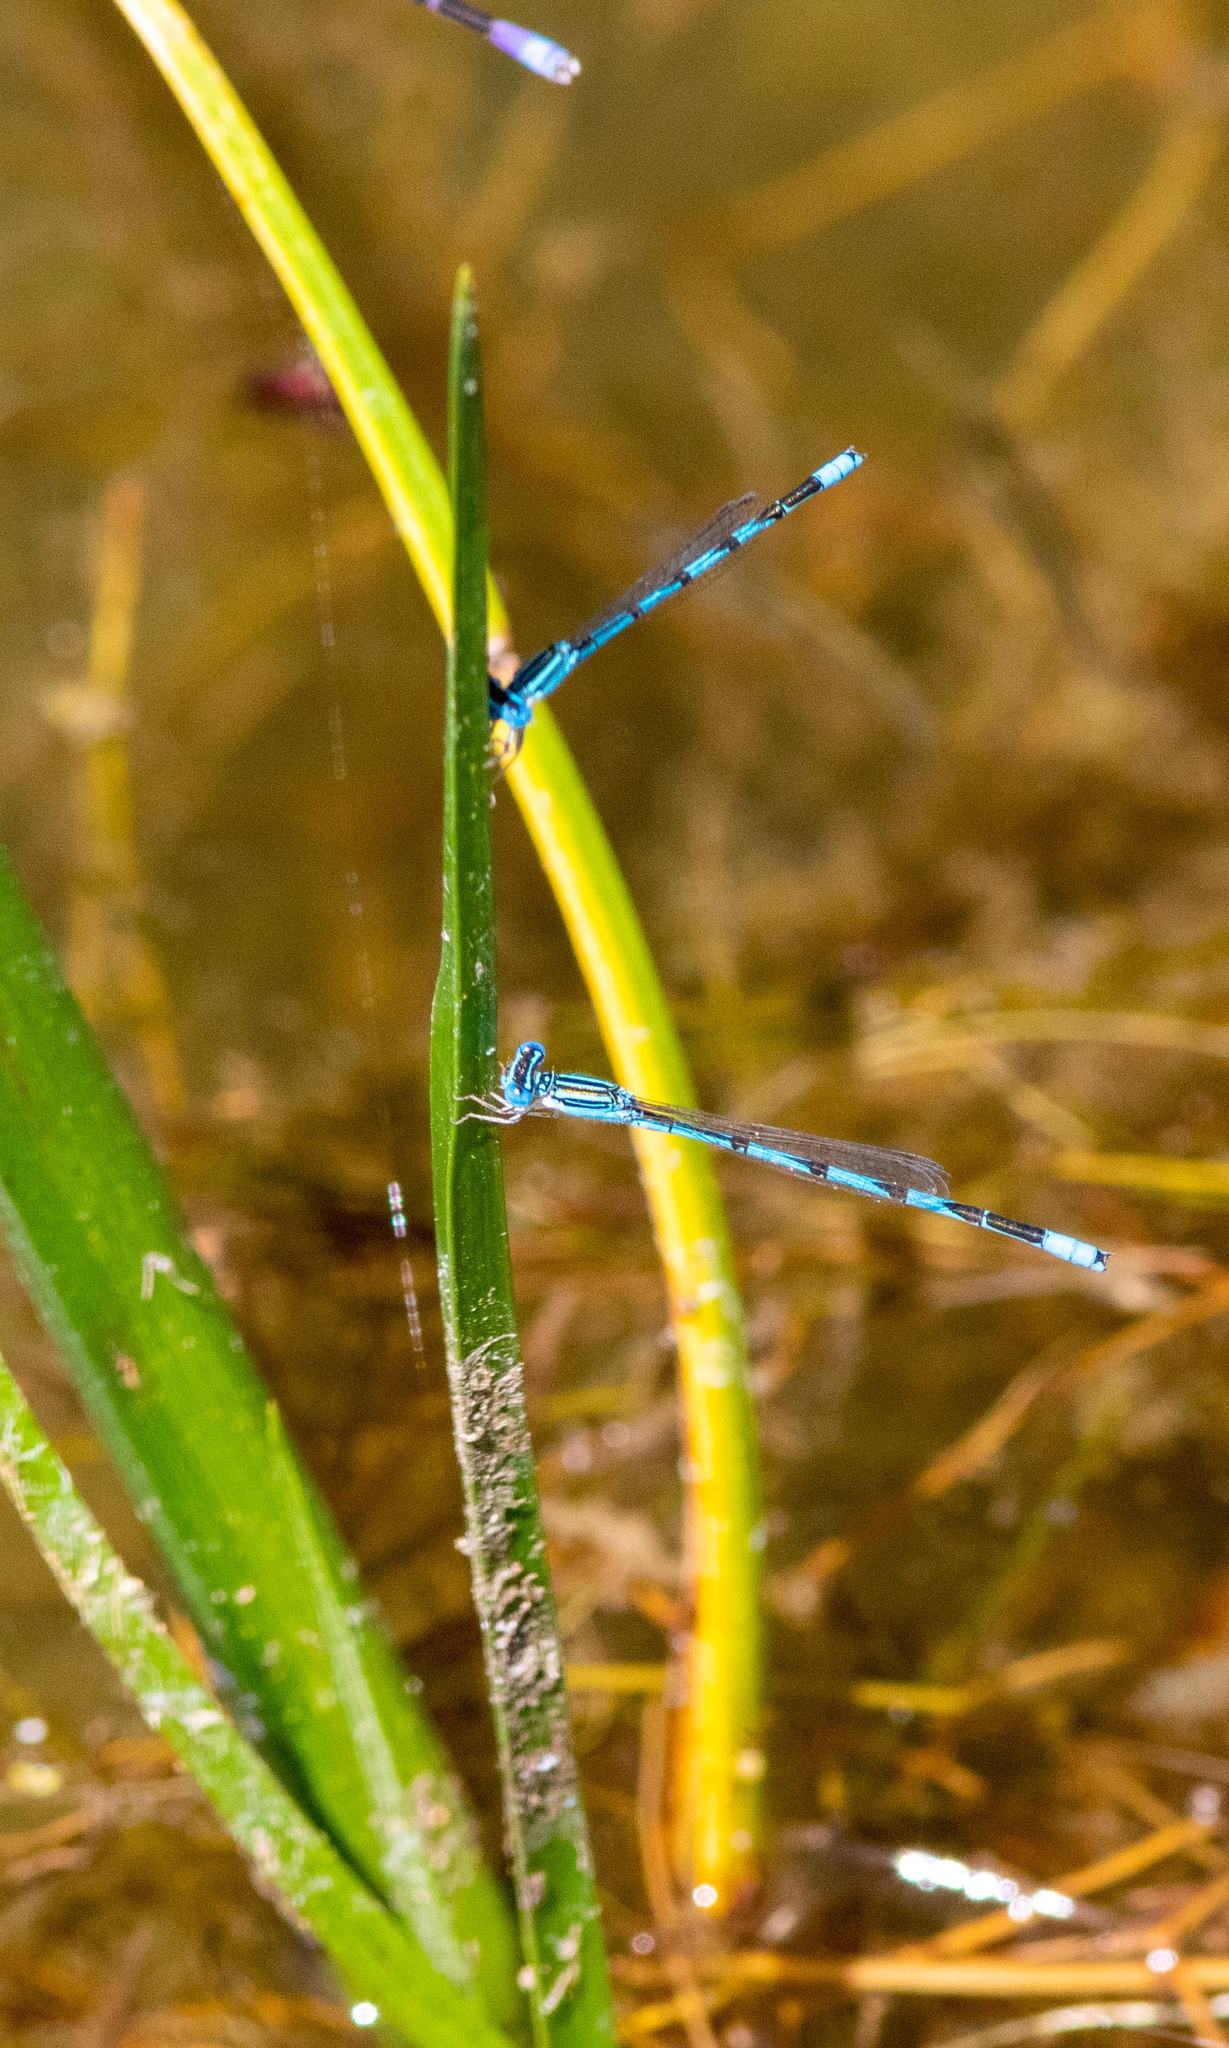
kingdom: Animalia
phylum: Arthropoda
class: Insecta
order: Odonata
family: Coenagrionidae
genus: Enallagma
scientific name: Enallagma basidens
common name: Double-striped bluet
